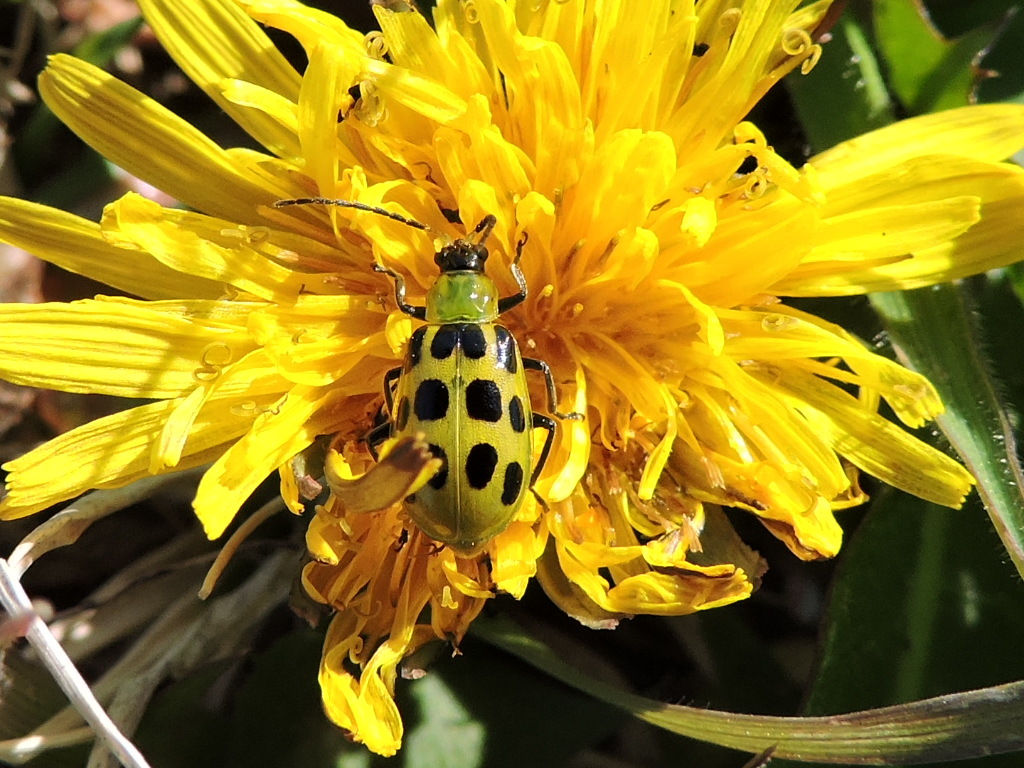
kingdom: Animalia
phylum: Arthropoda
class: Insecta
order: Coleoptera
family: Chrysomelidae
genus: Diabrotica
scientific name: Diabrotica undecimpunctata
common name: Spotted cucumber beetle
